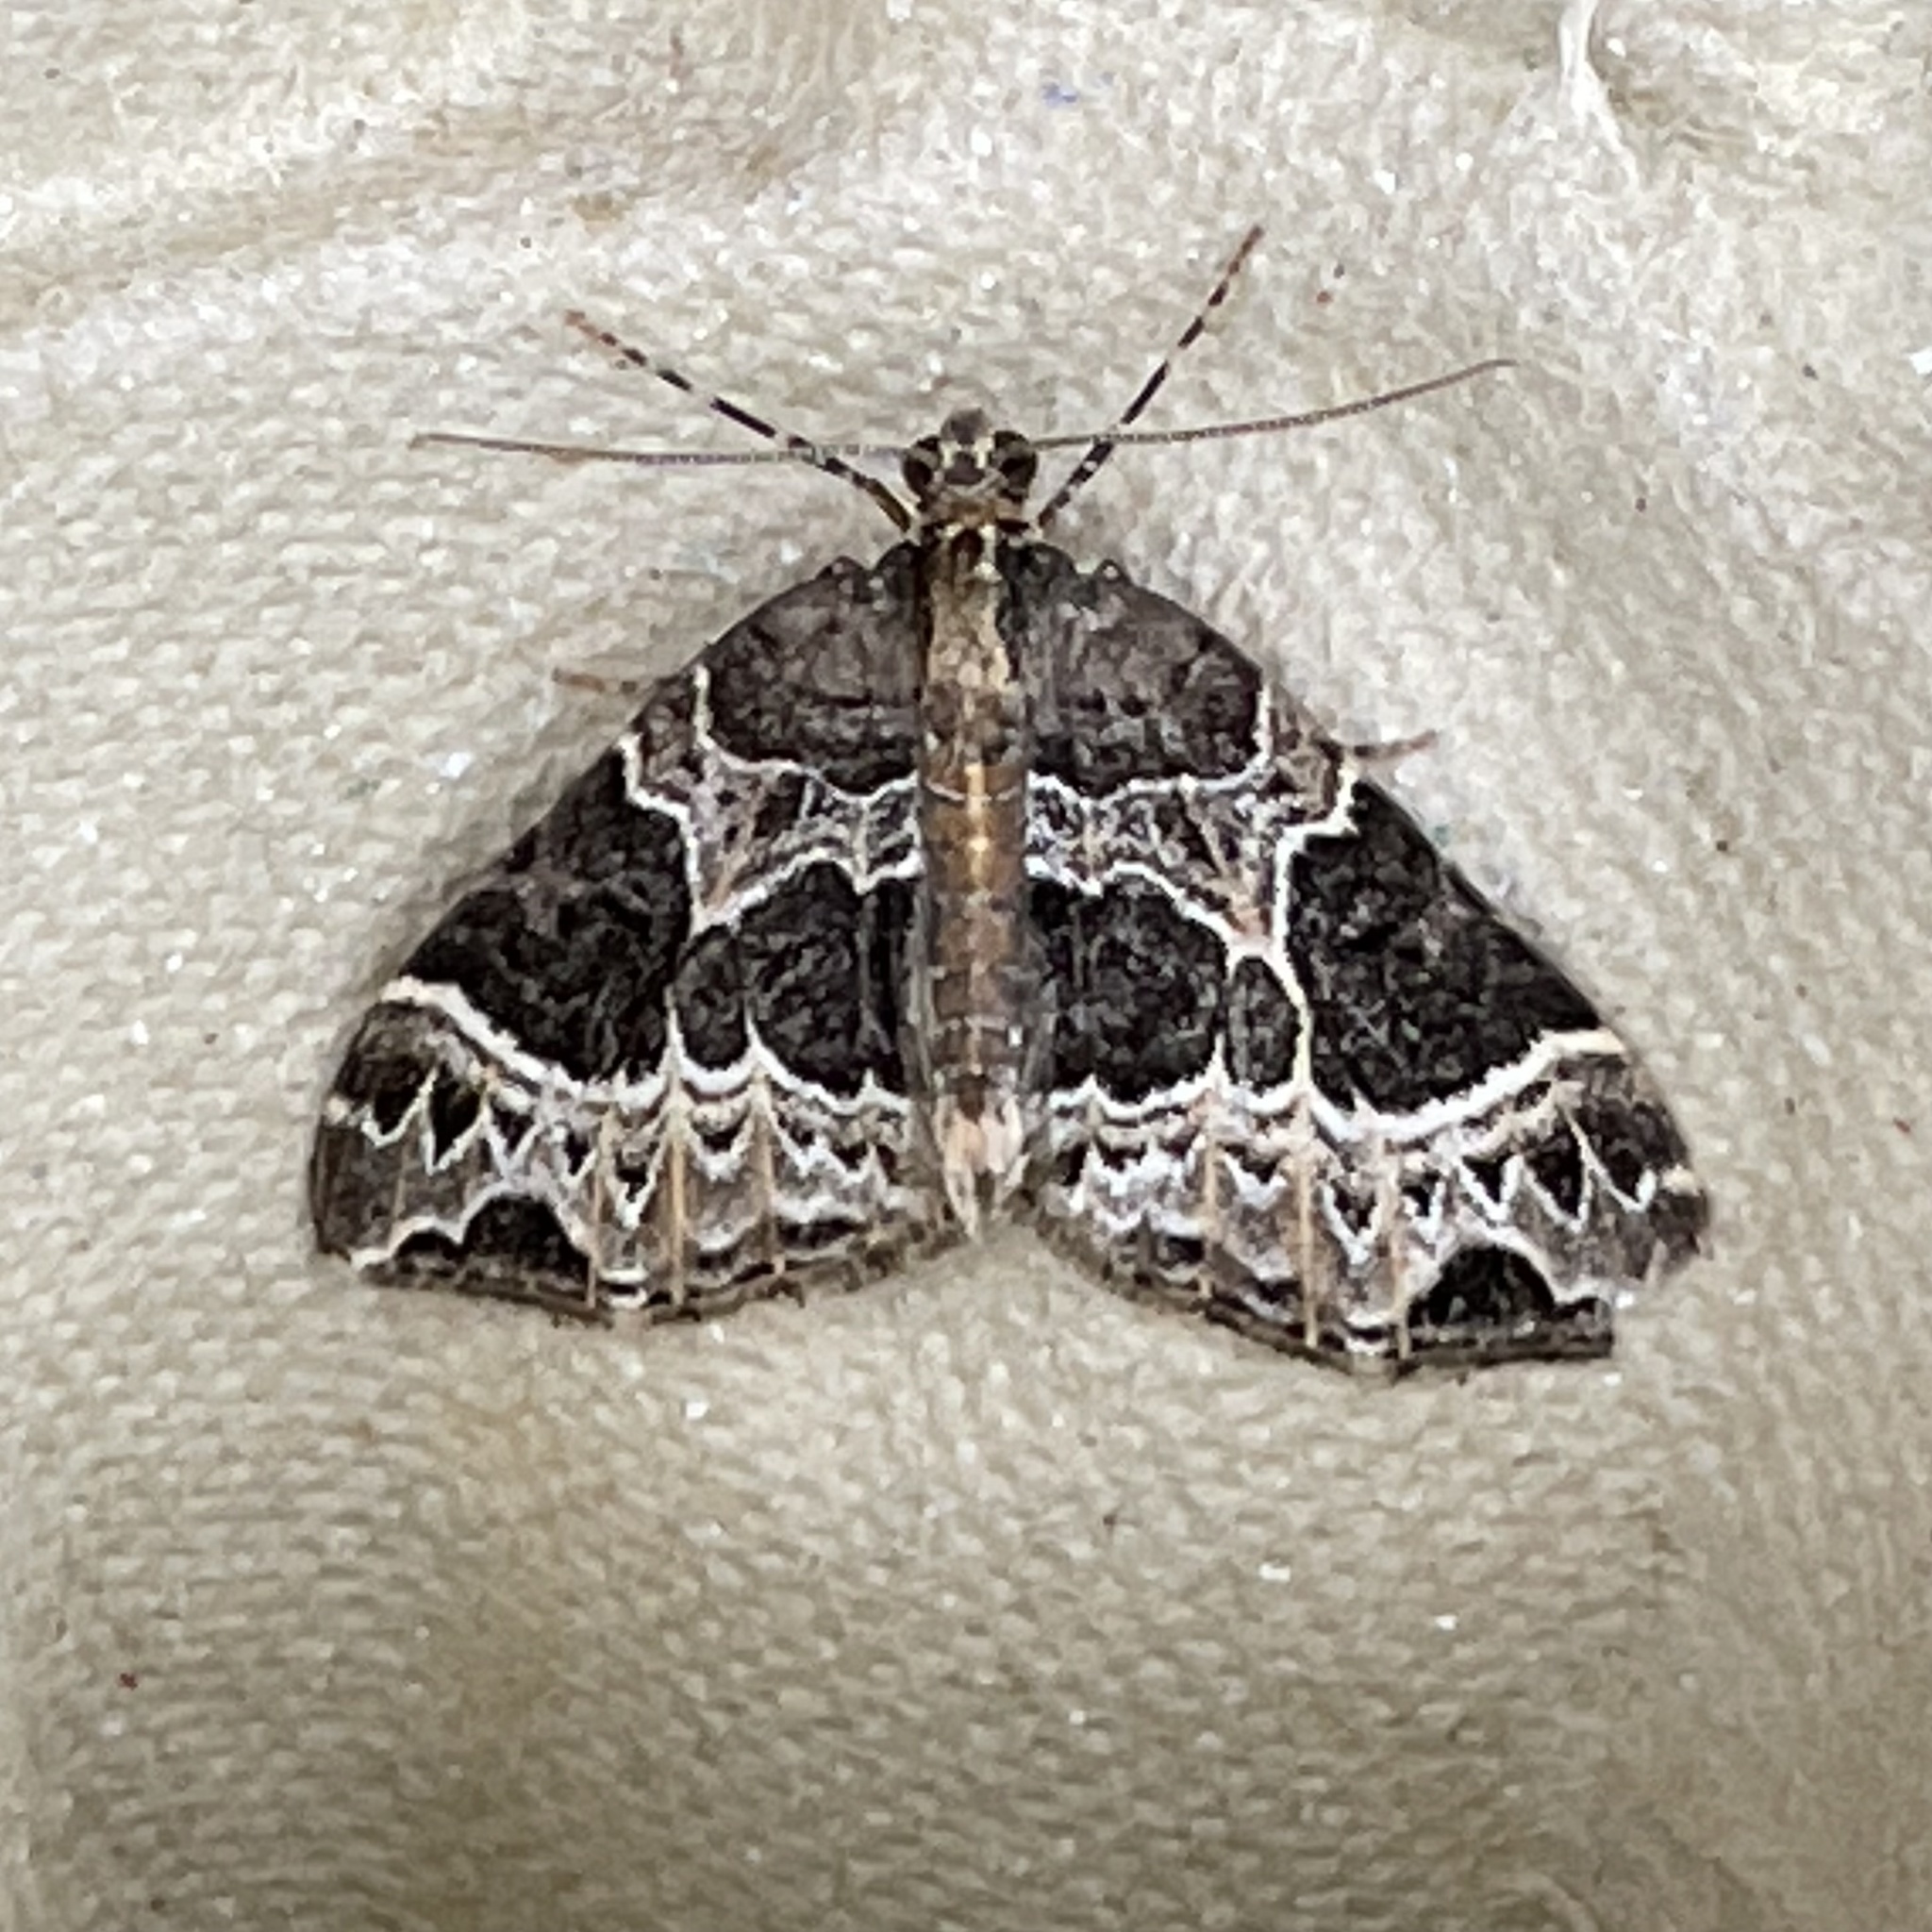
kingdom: Animalia
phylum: Arthropoda
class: Insecta
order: Lepidoptera
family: Geometridae
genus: Ecliptopera
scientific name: Ecliptopera silaceata
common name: Small phoenix
